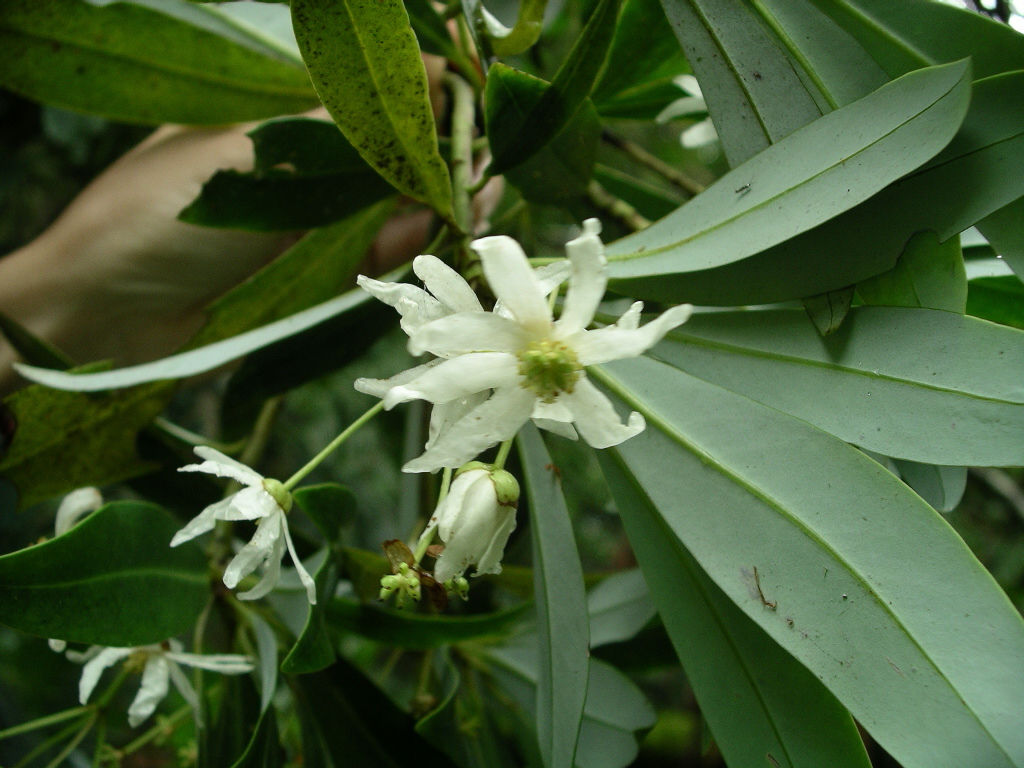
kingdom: Plantae
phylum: Tracheophyta
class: Magnoliopsida
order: Canellales
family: Winteraceae
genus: Drimys
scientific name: Drimys granadensis
